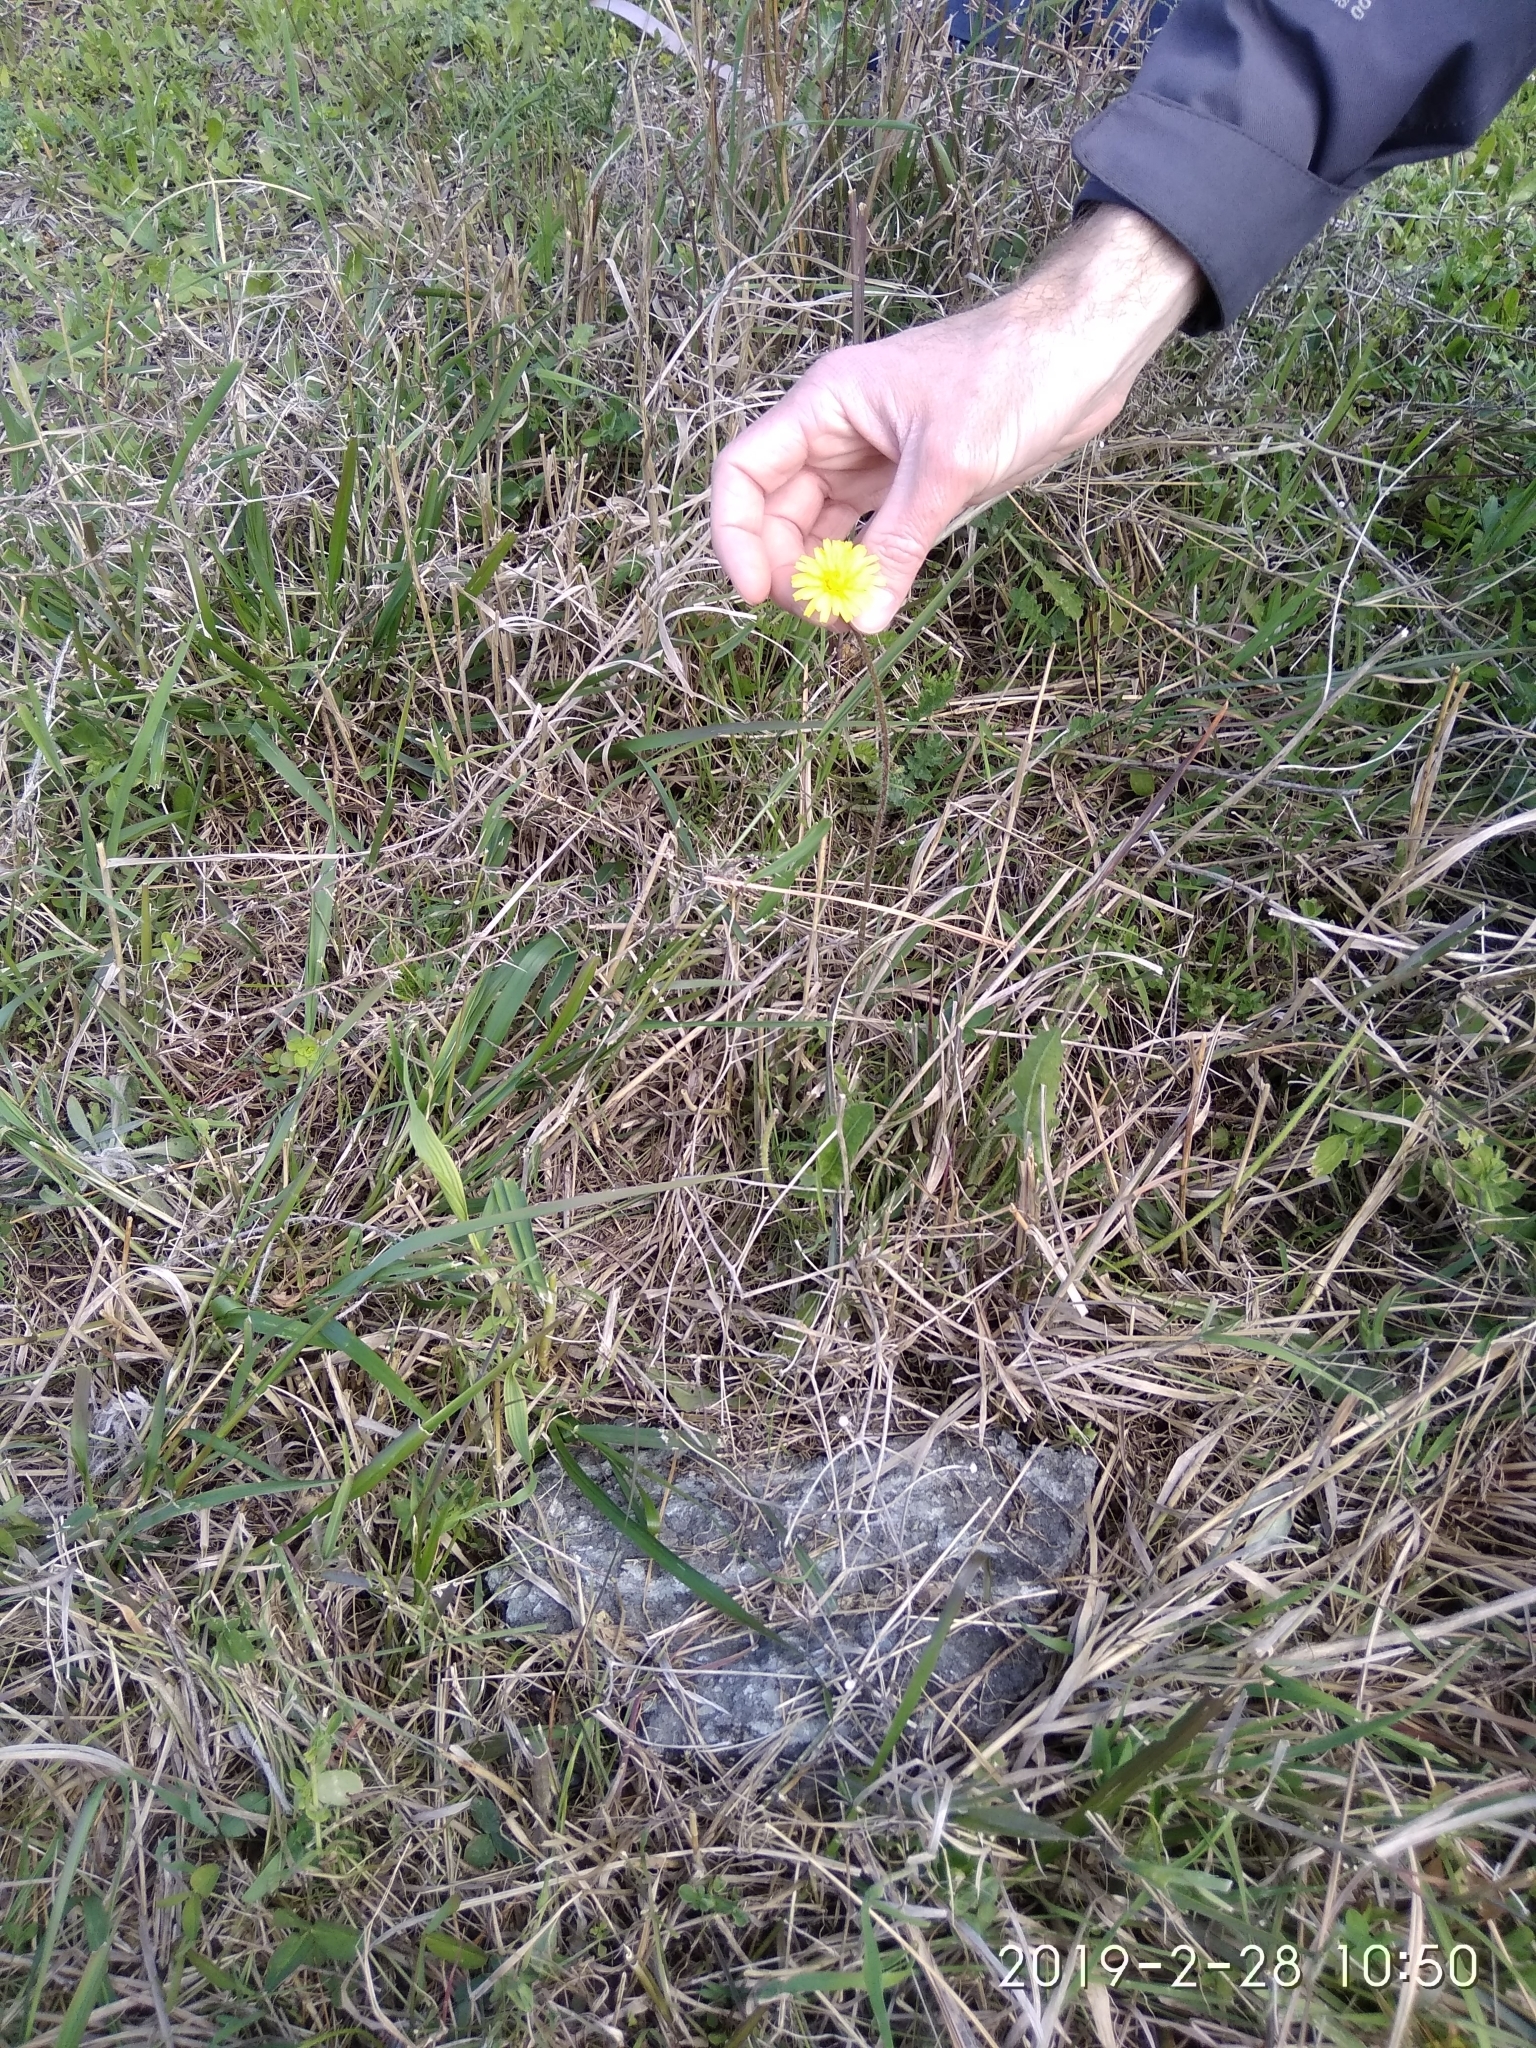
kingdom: Plantae
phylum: Tracheophyta
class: Magnoliopsida
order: Asterales
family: Asteraceae
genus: Leontodon
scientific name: Leontodon tuberosus
